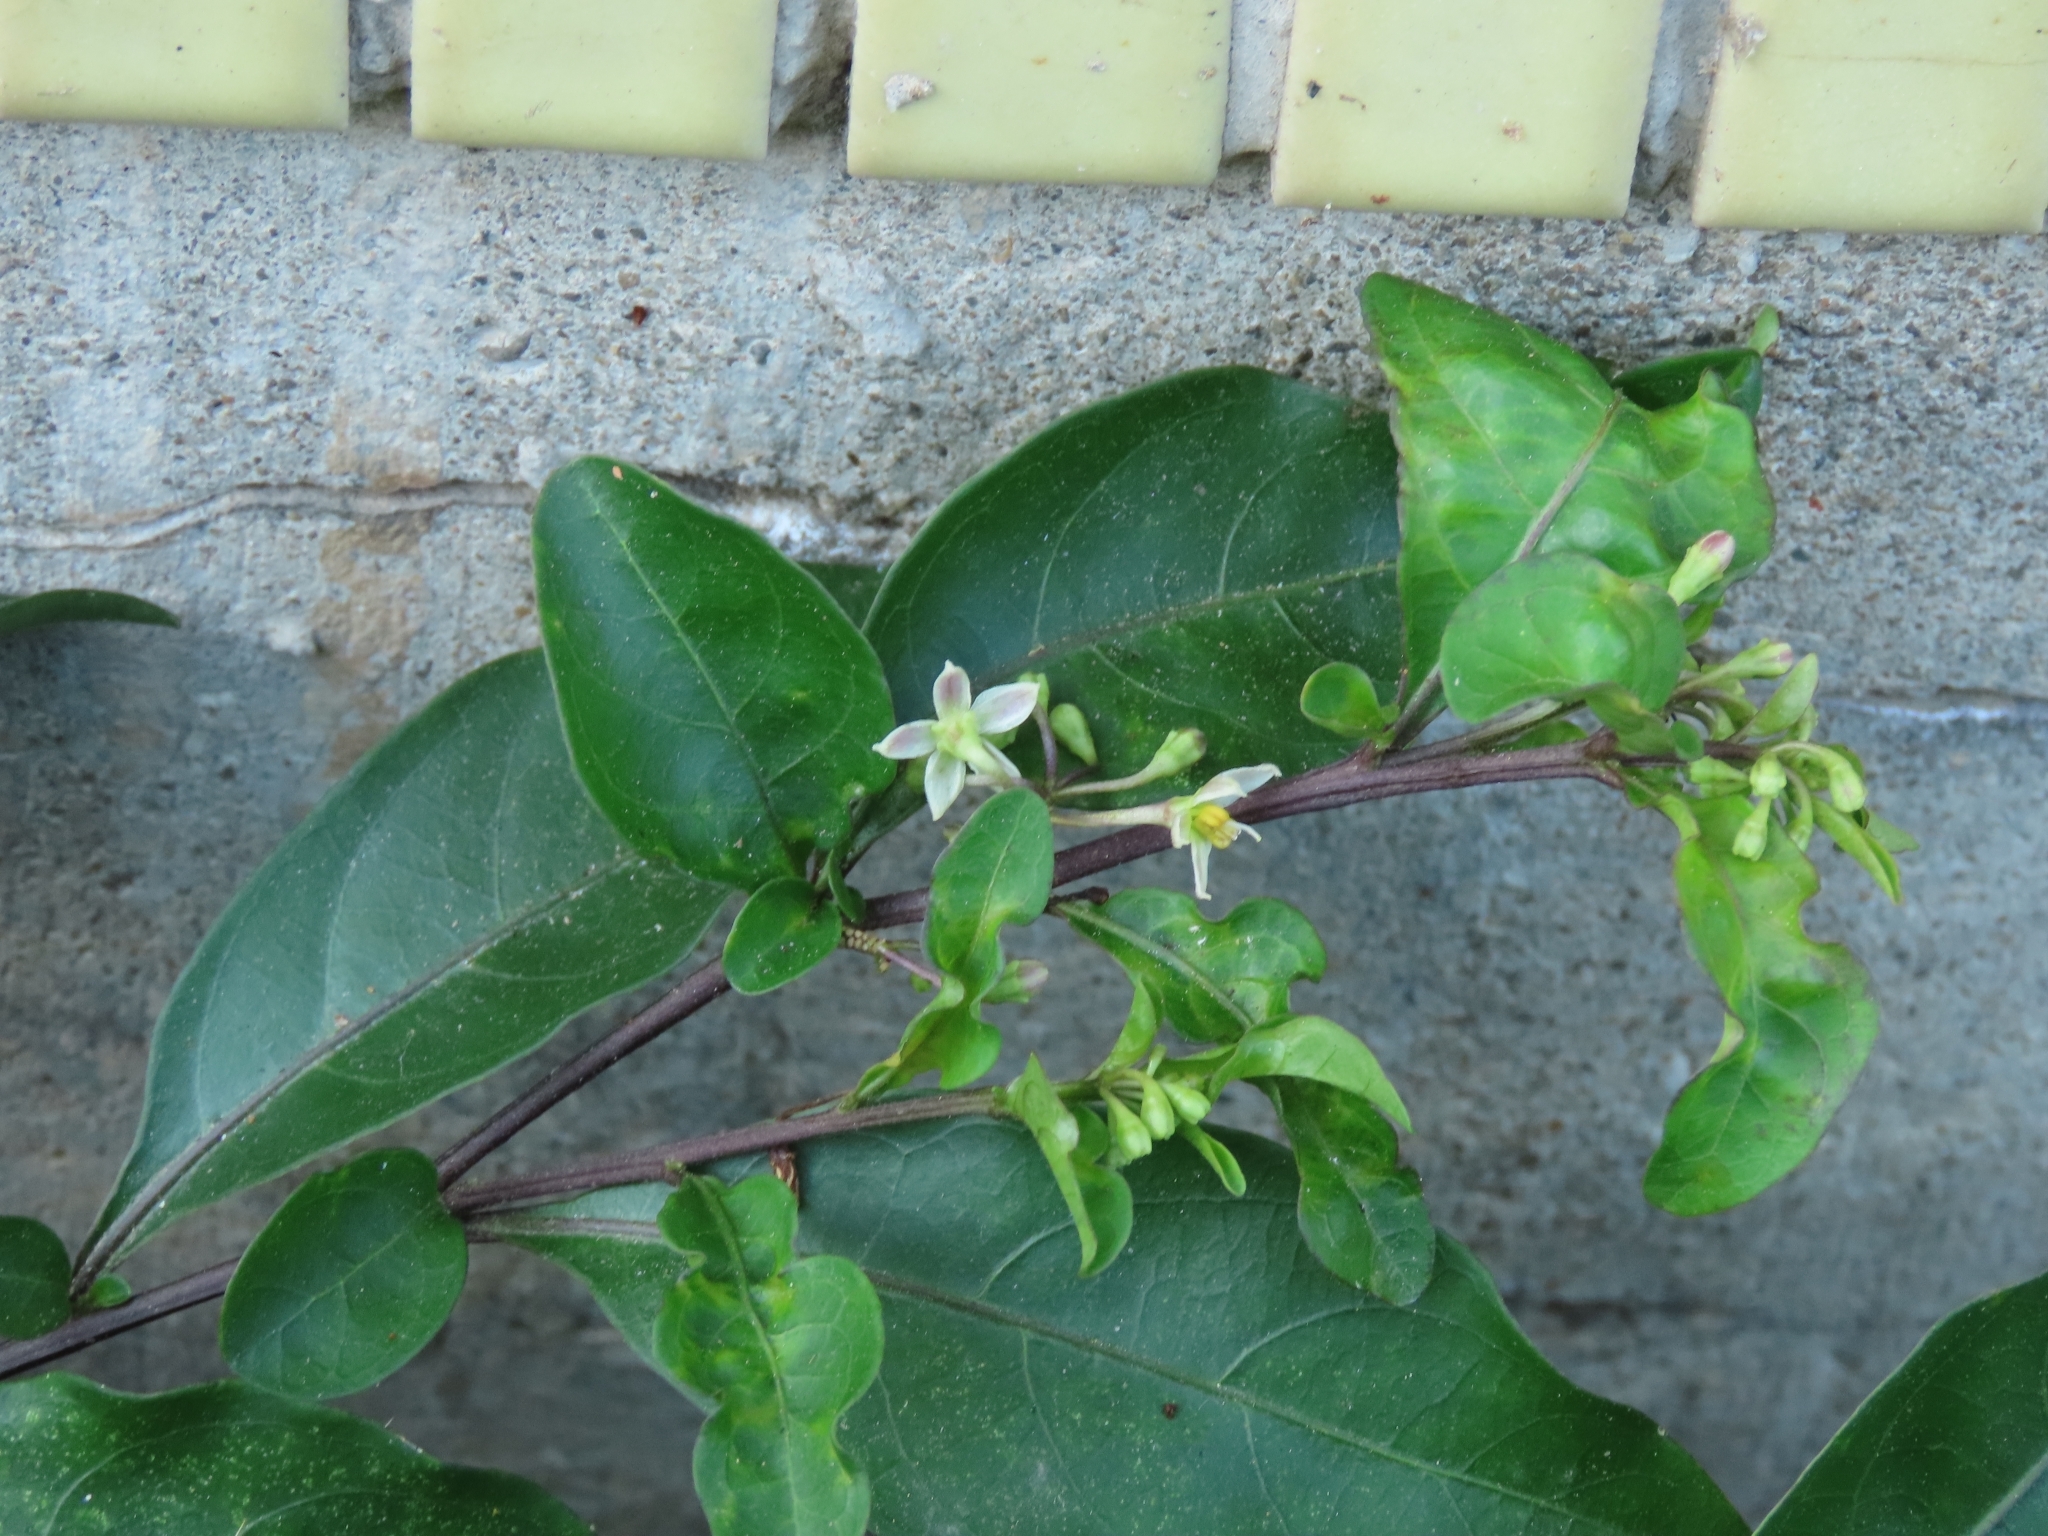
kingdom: Plantae
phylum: Tracheophyta
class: Magnoliopsida
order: Solanales
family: Solanaceae
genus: Solanum
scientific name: Solanum diphyllum
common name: Twoleaf nightshade
